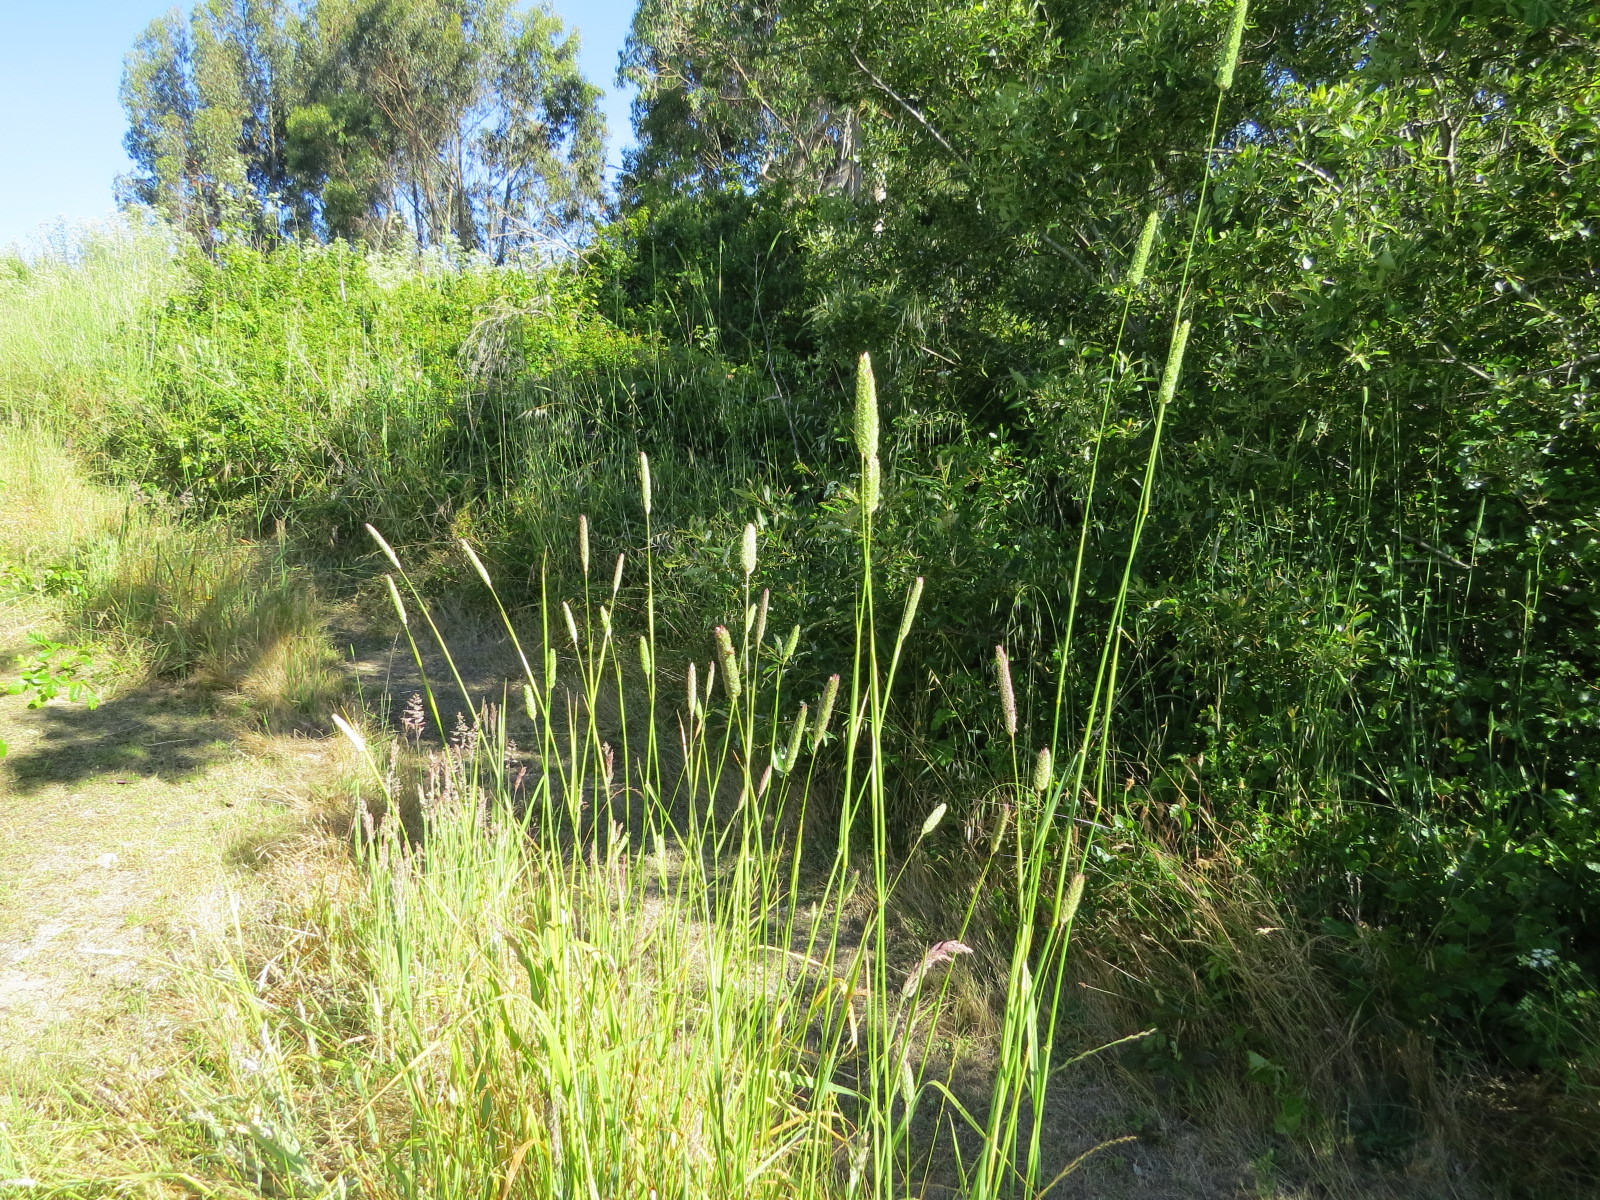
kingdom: Plantae
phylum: Tracheophyta
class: Liliopsida
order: Poales
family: Poaceae
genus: Phalaris
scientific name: Phalaris aquatica
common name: Bulbous canary-grass
